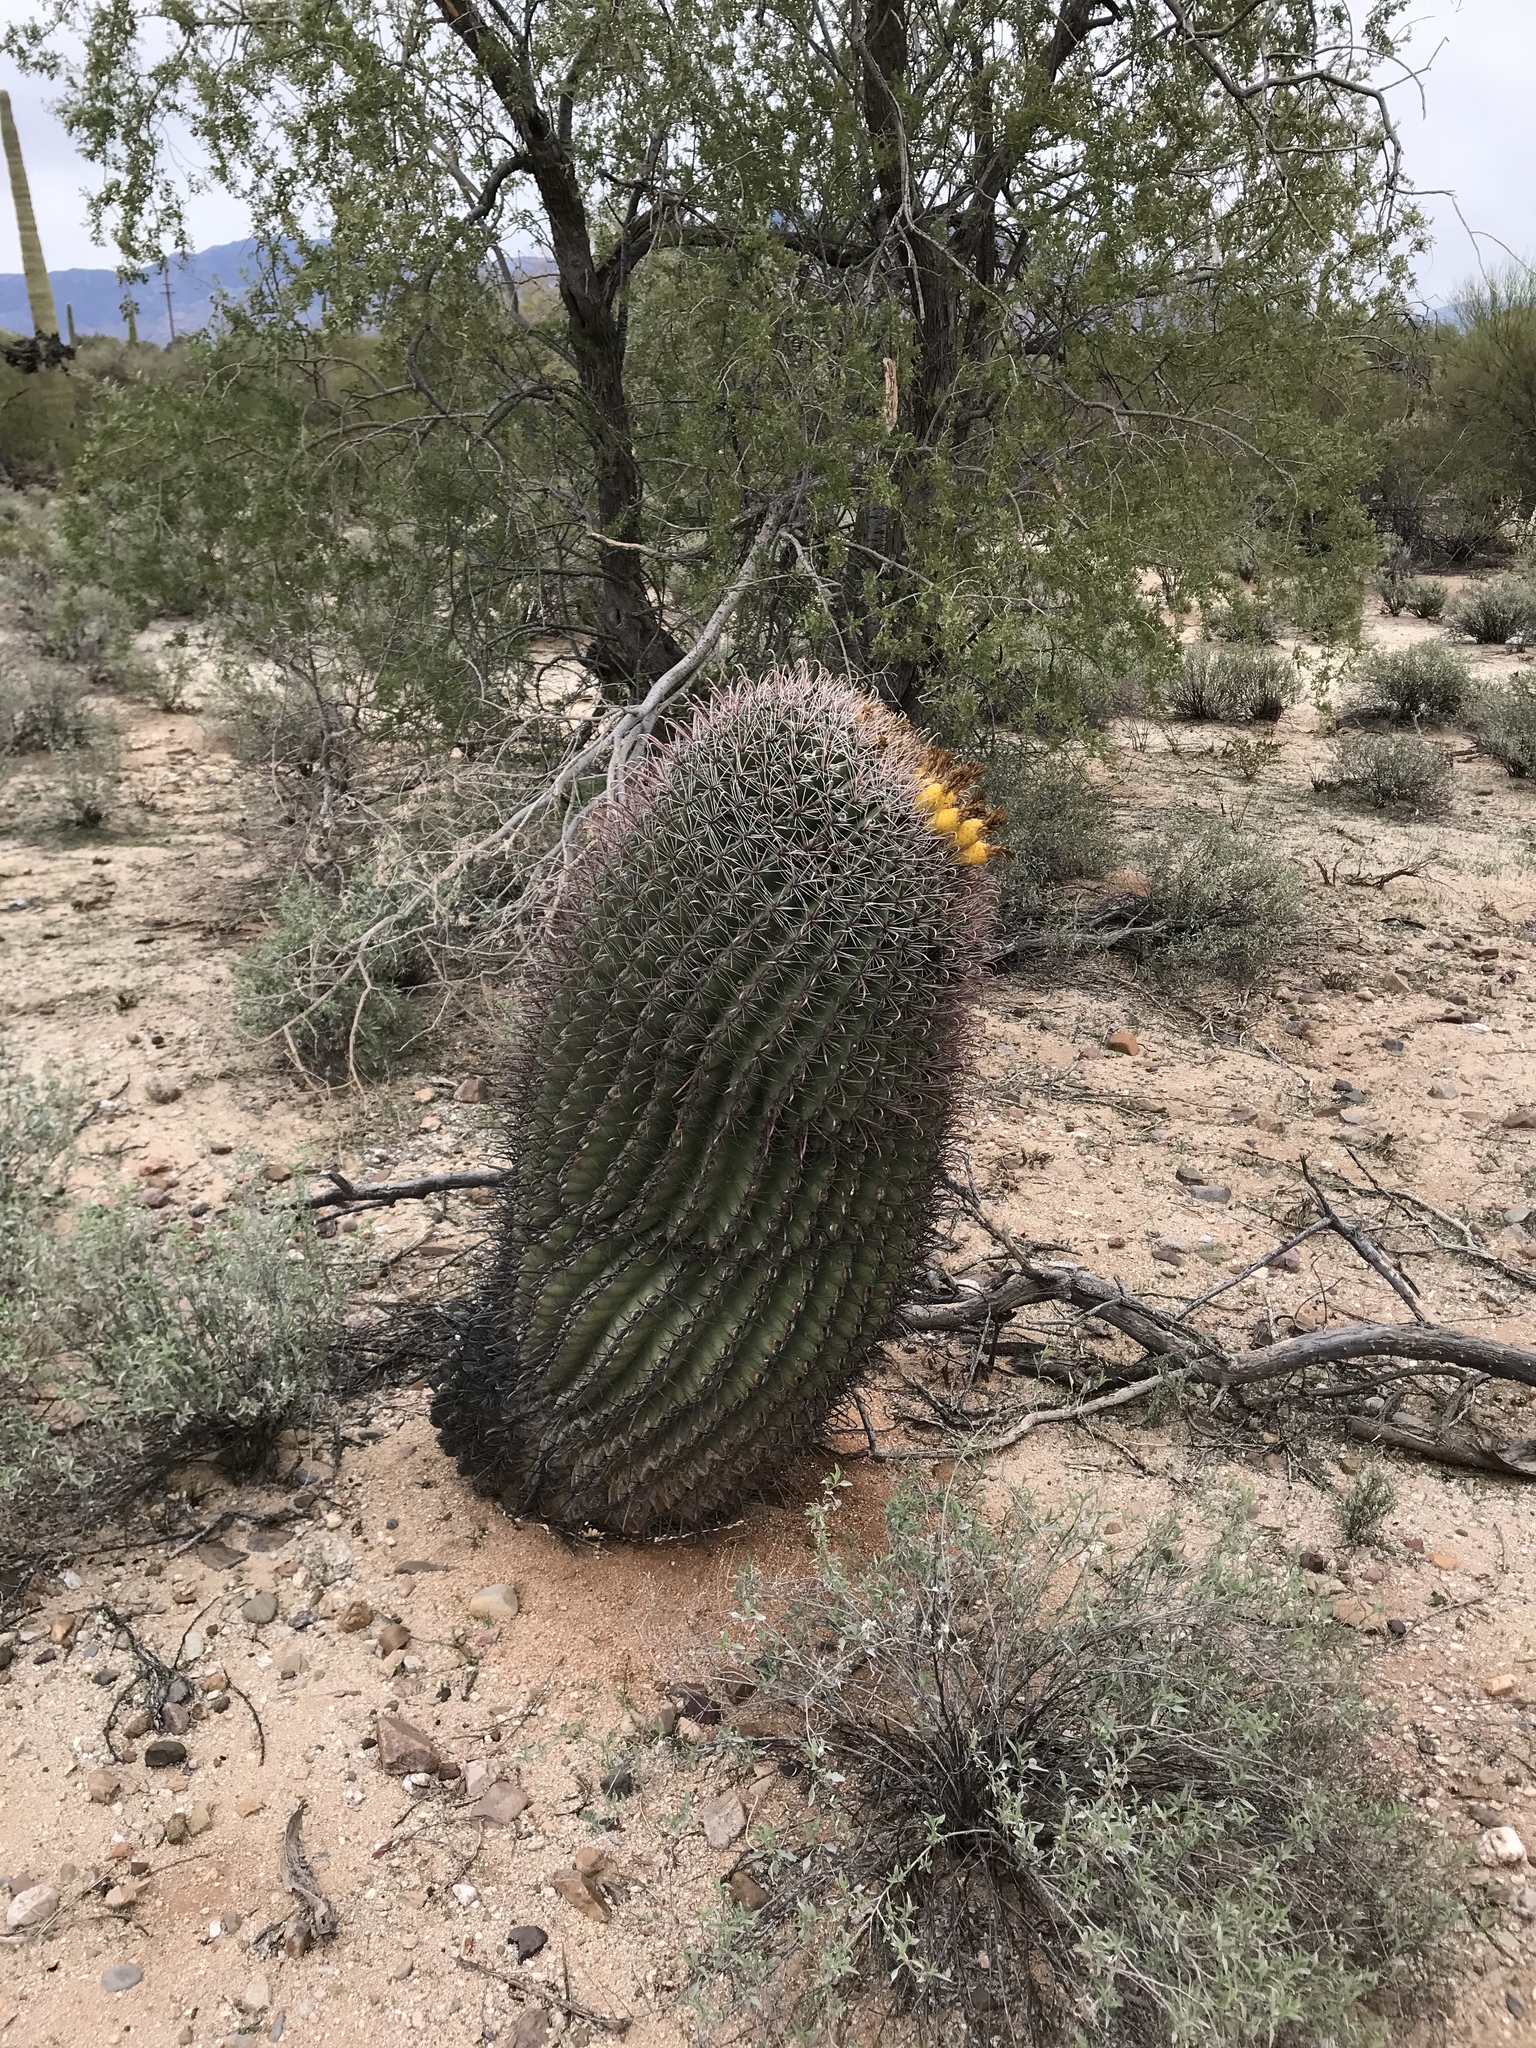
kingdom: Plantae
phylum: Tracheophyta
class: Magnoliopsida
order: Caryophyllales
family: Cactaceae
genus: Ferocactus
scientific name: Ferocactus wislizeni
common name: Candy barrel cactus
